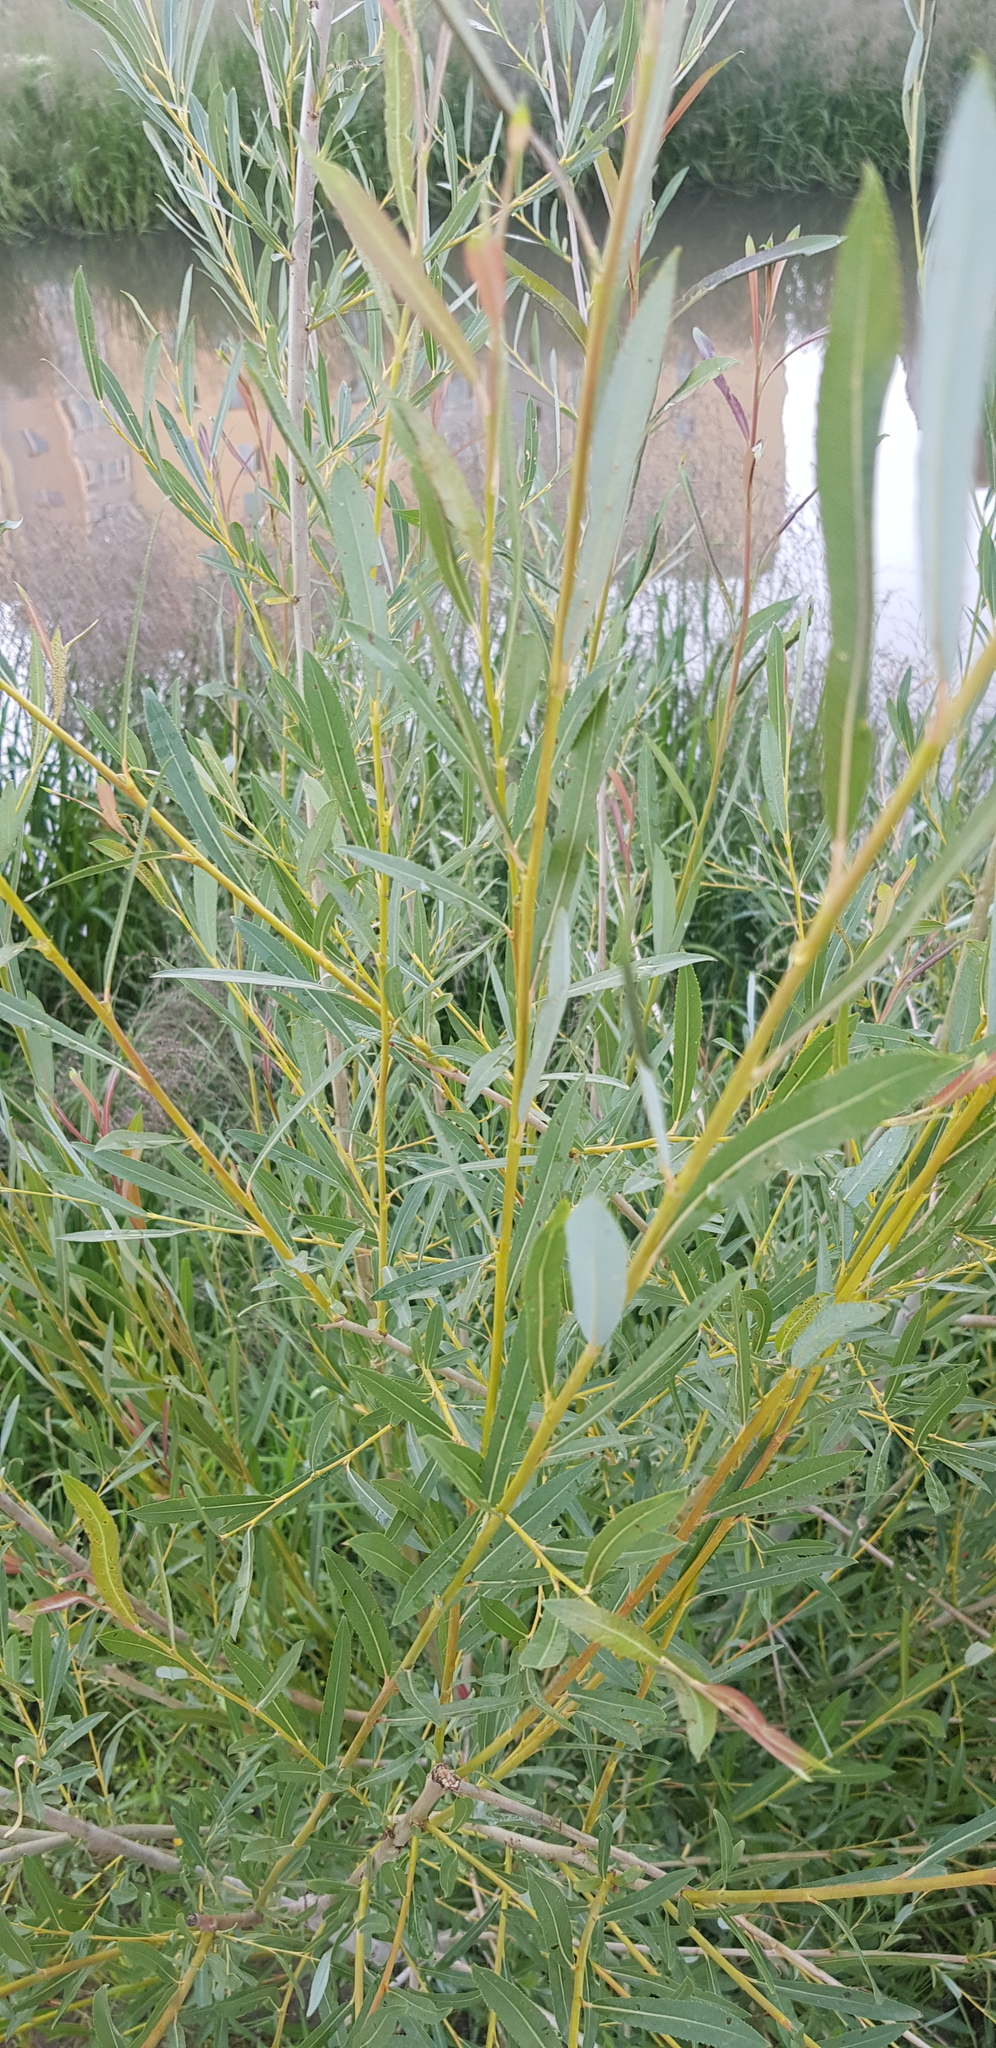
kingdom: Plantae
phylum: Tracheophyta
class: Magnoliopsida
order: Malpighiales
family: Salicaceae
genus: Salix
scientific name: Salix viminalis
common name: Osier
